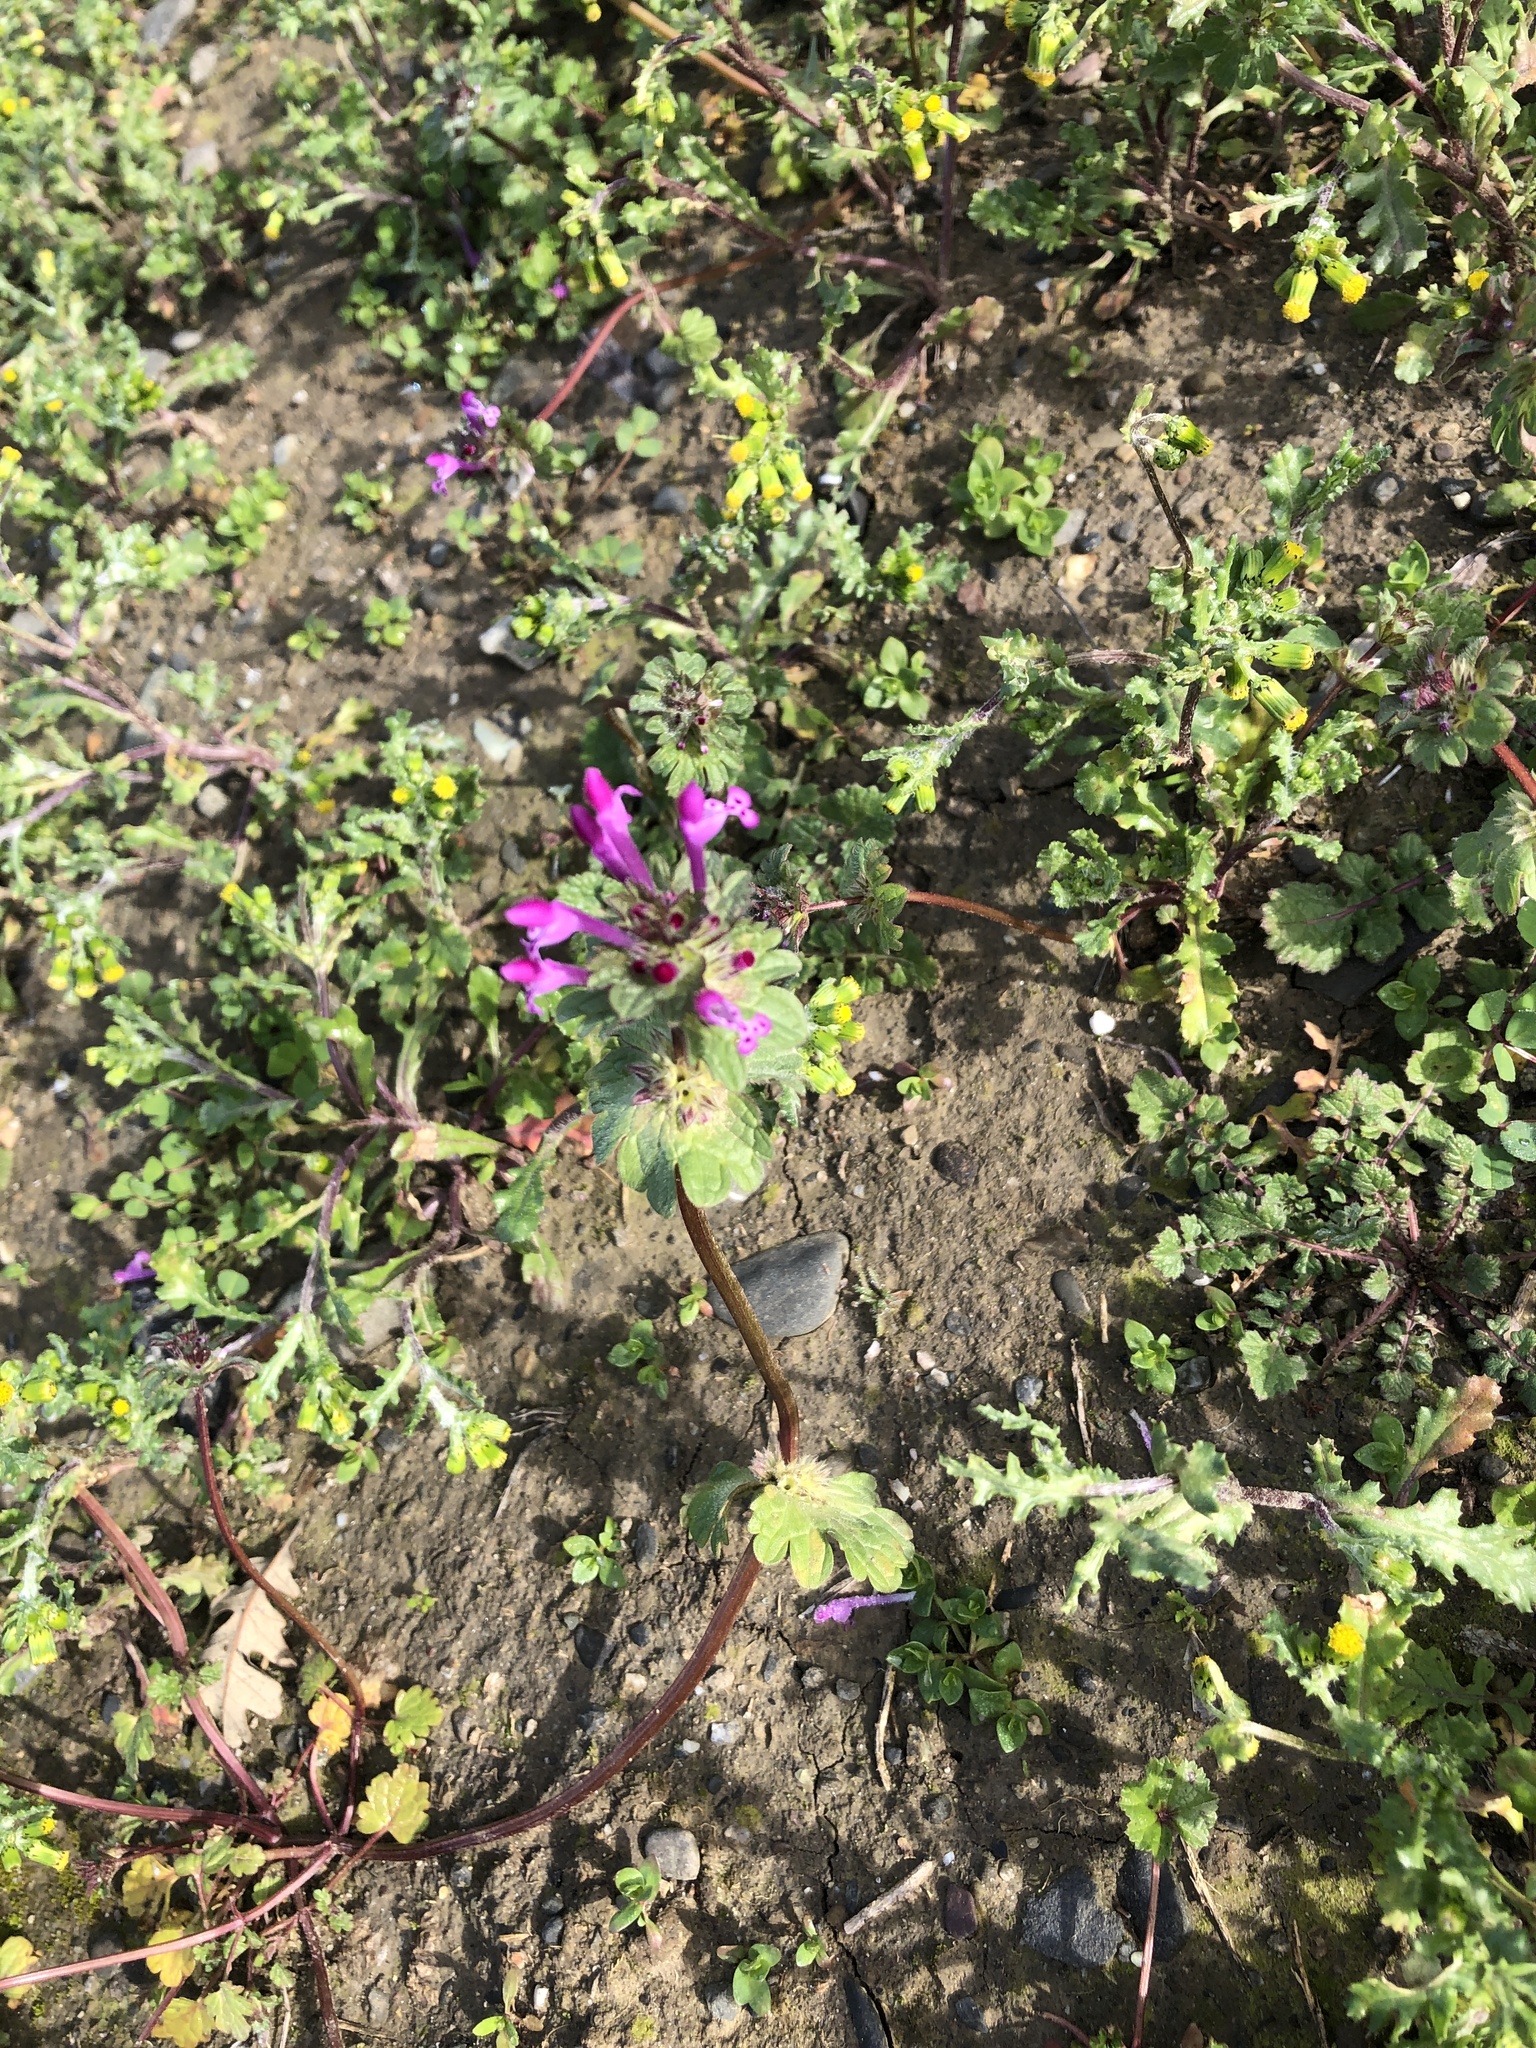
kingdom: Plantae
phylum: Tracheophyta
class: Magnoliopsida
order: Lamiales
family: Lamiaceae
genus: Lamium
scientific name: Lamium amplexicaule
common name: Henbit dead-nettle
